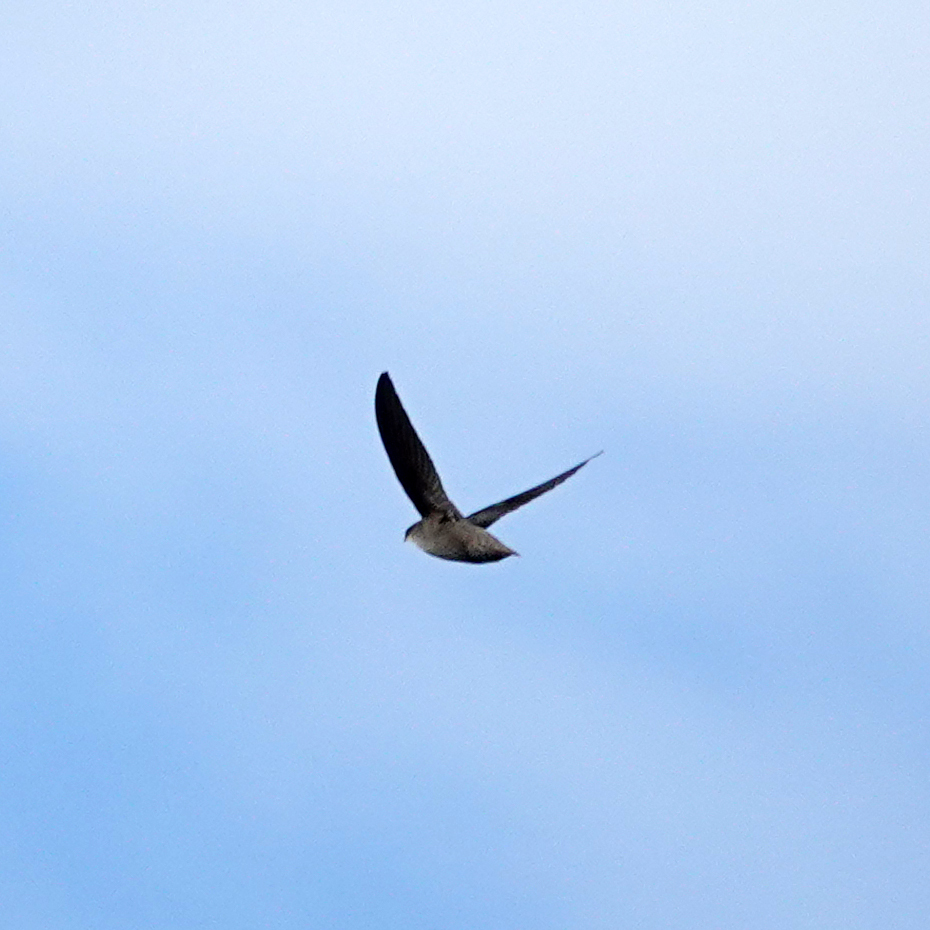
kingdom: Animalia
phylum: Chordata
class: Aves
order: Apodiformes
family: Apodidae
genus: Chaetura
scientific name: Chaetura pelagica
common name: Chimney swift
